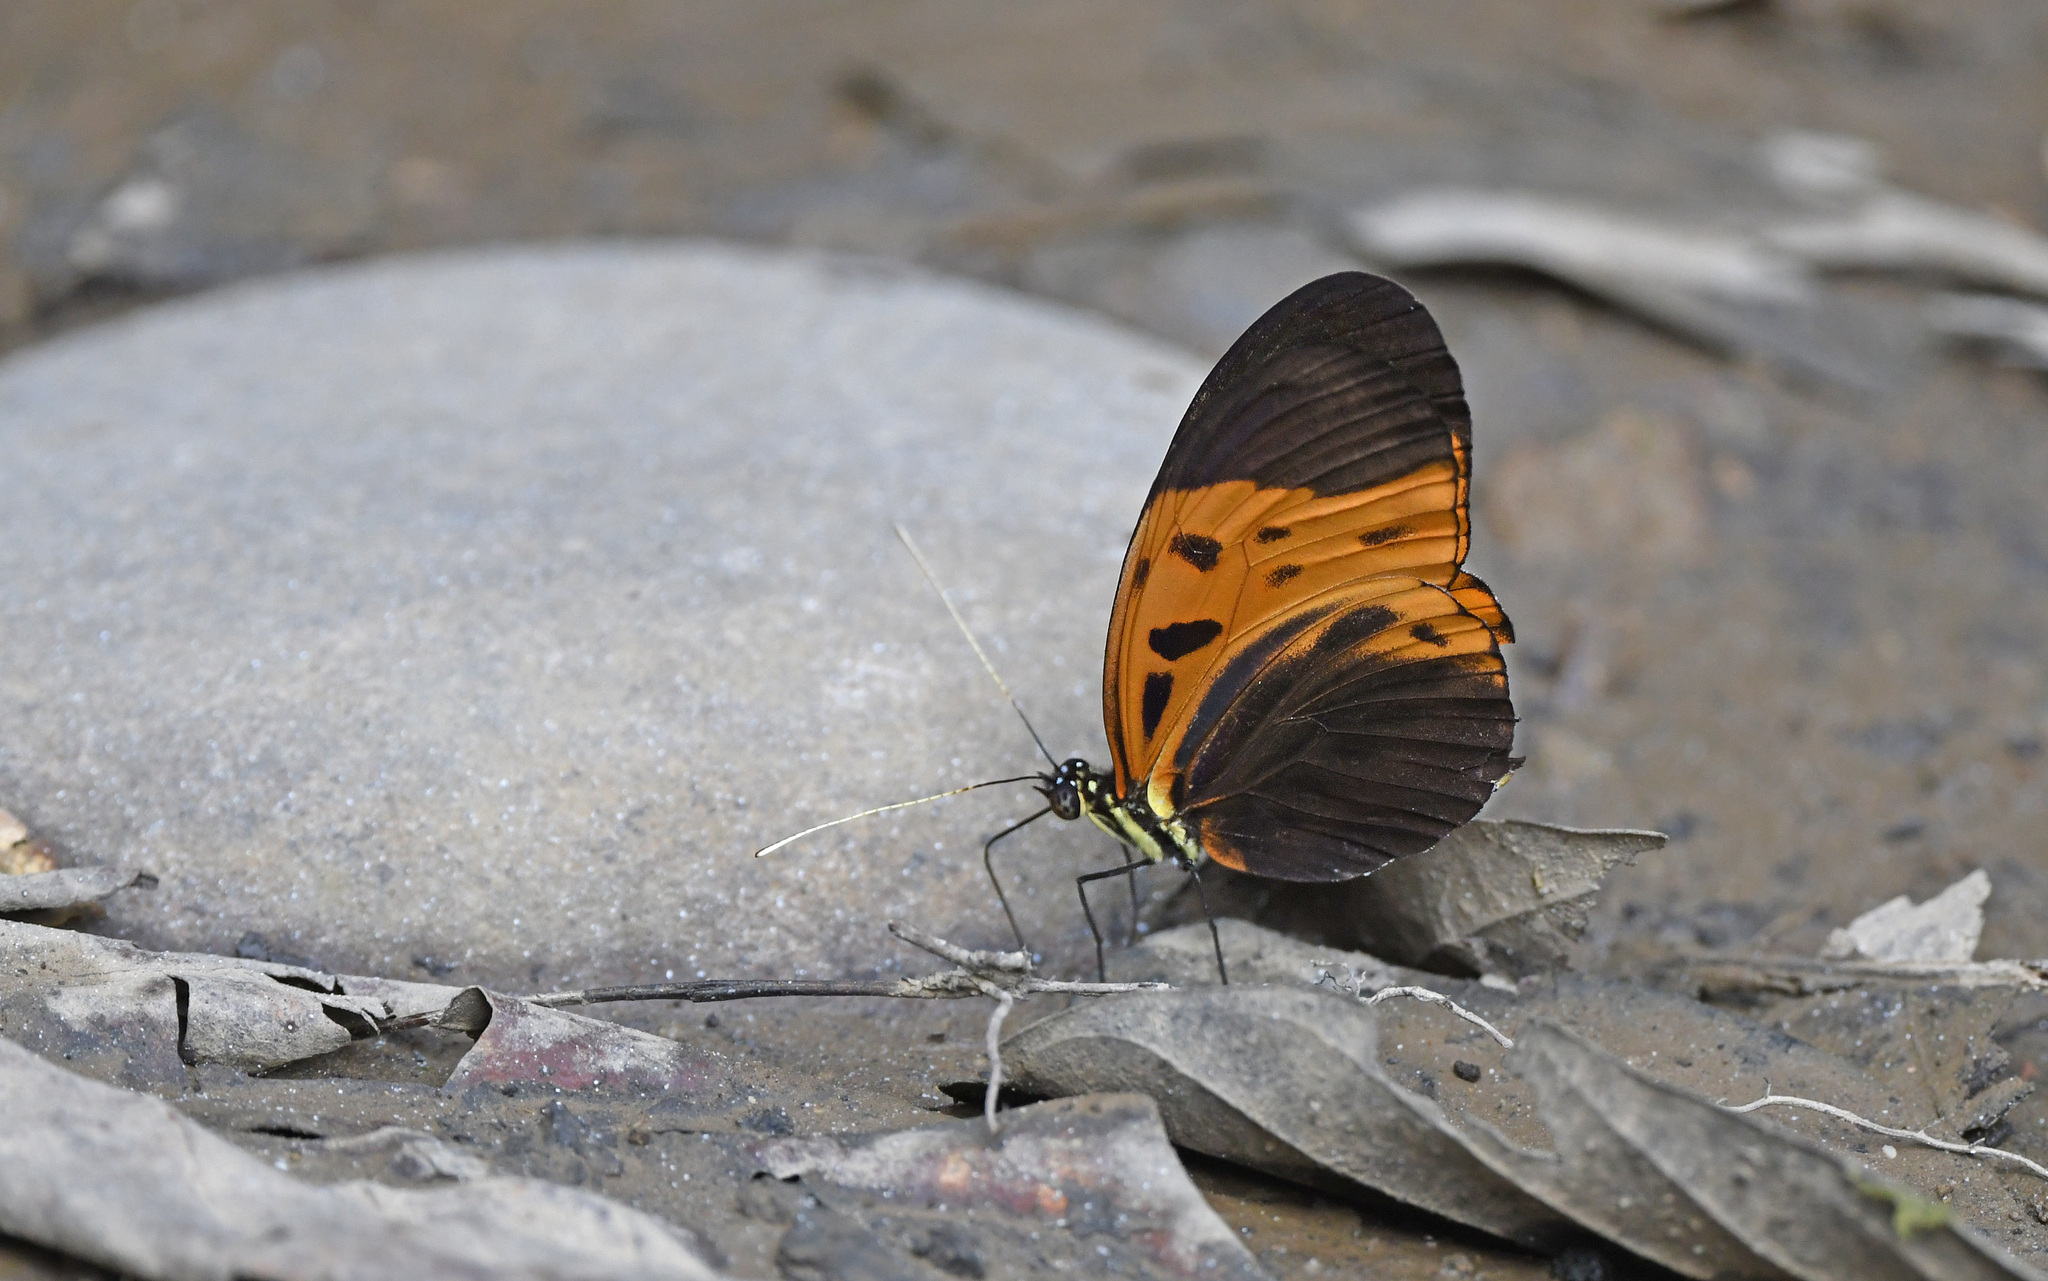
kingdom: Animalia
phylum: Arthropoda
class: Insecta
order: Lepidoptera
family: Nymphalidae
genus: Heliconius
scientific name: Heliconius numatus
